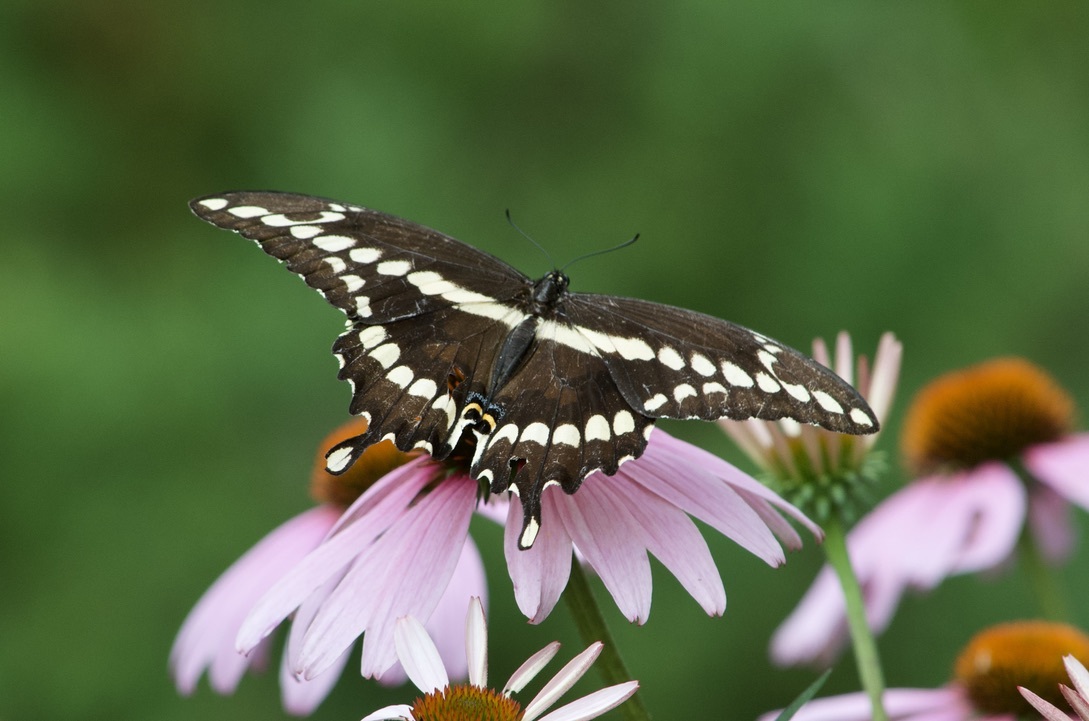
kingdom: Animalia
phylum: Arthropoda
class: Insecta
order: Lepidoptera
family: Papilionidae
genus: Papilio
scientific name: Papilio cresphontes
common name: Giant swallowtail
